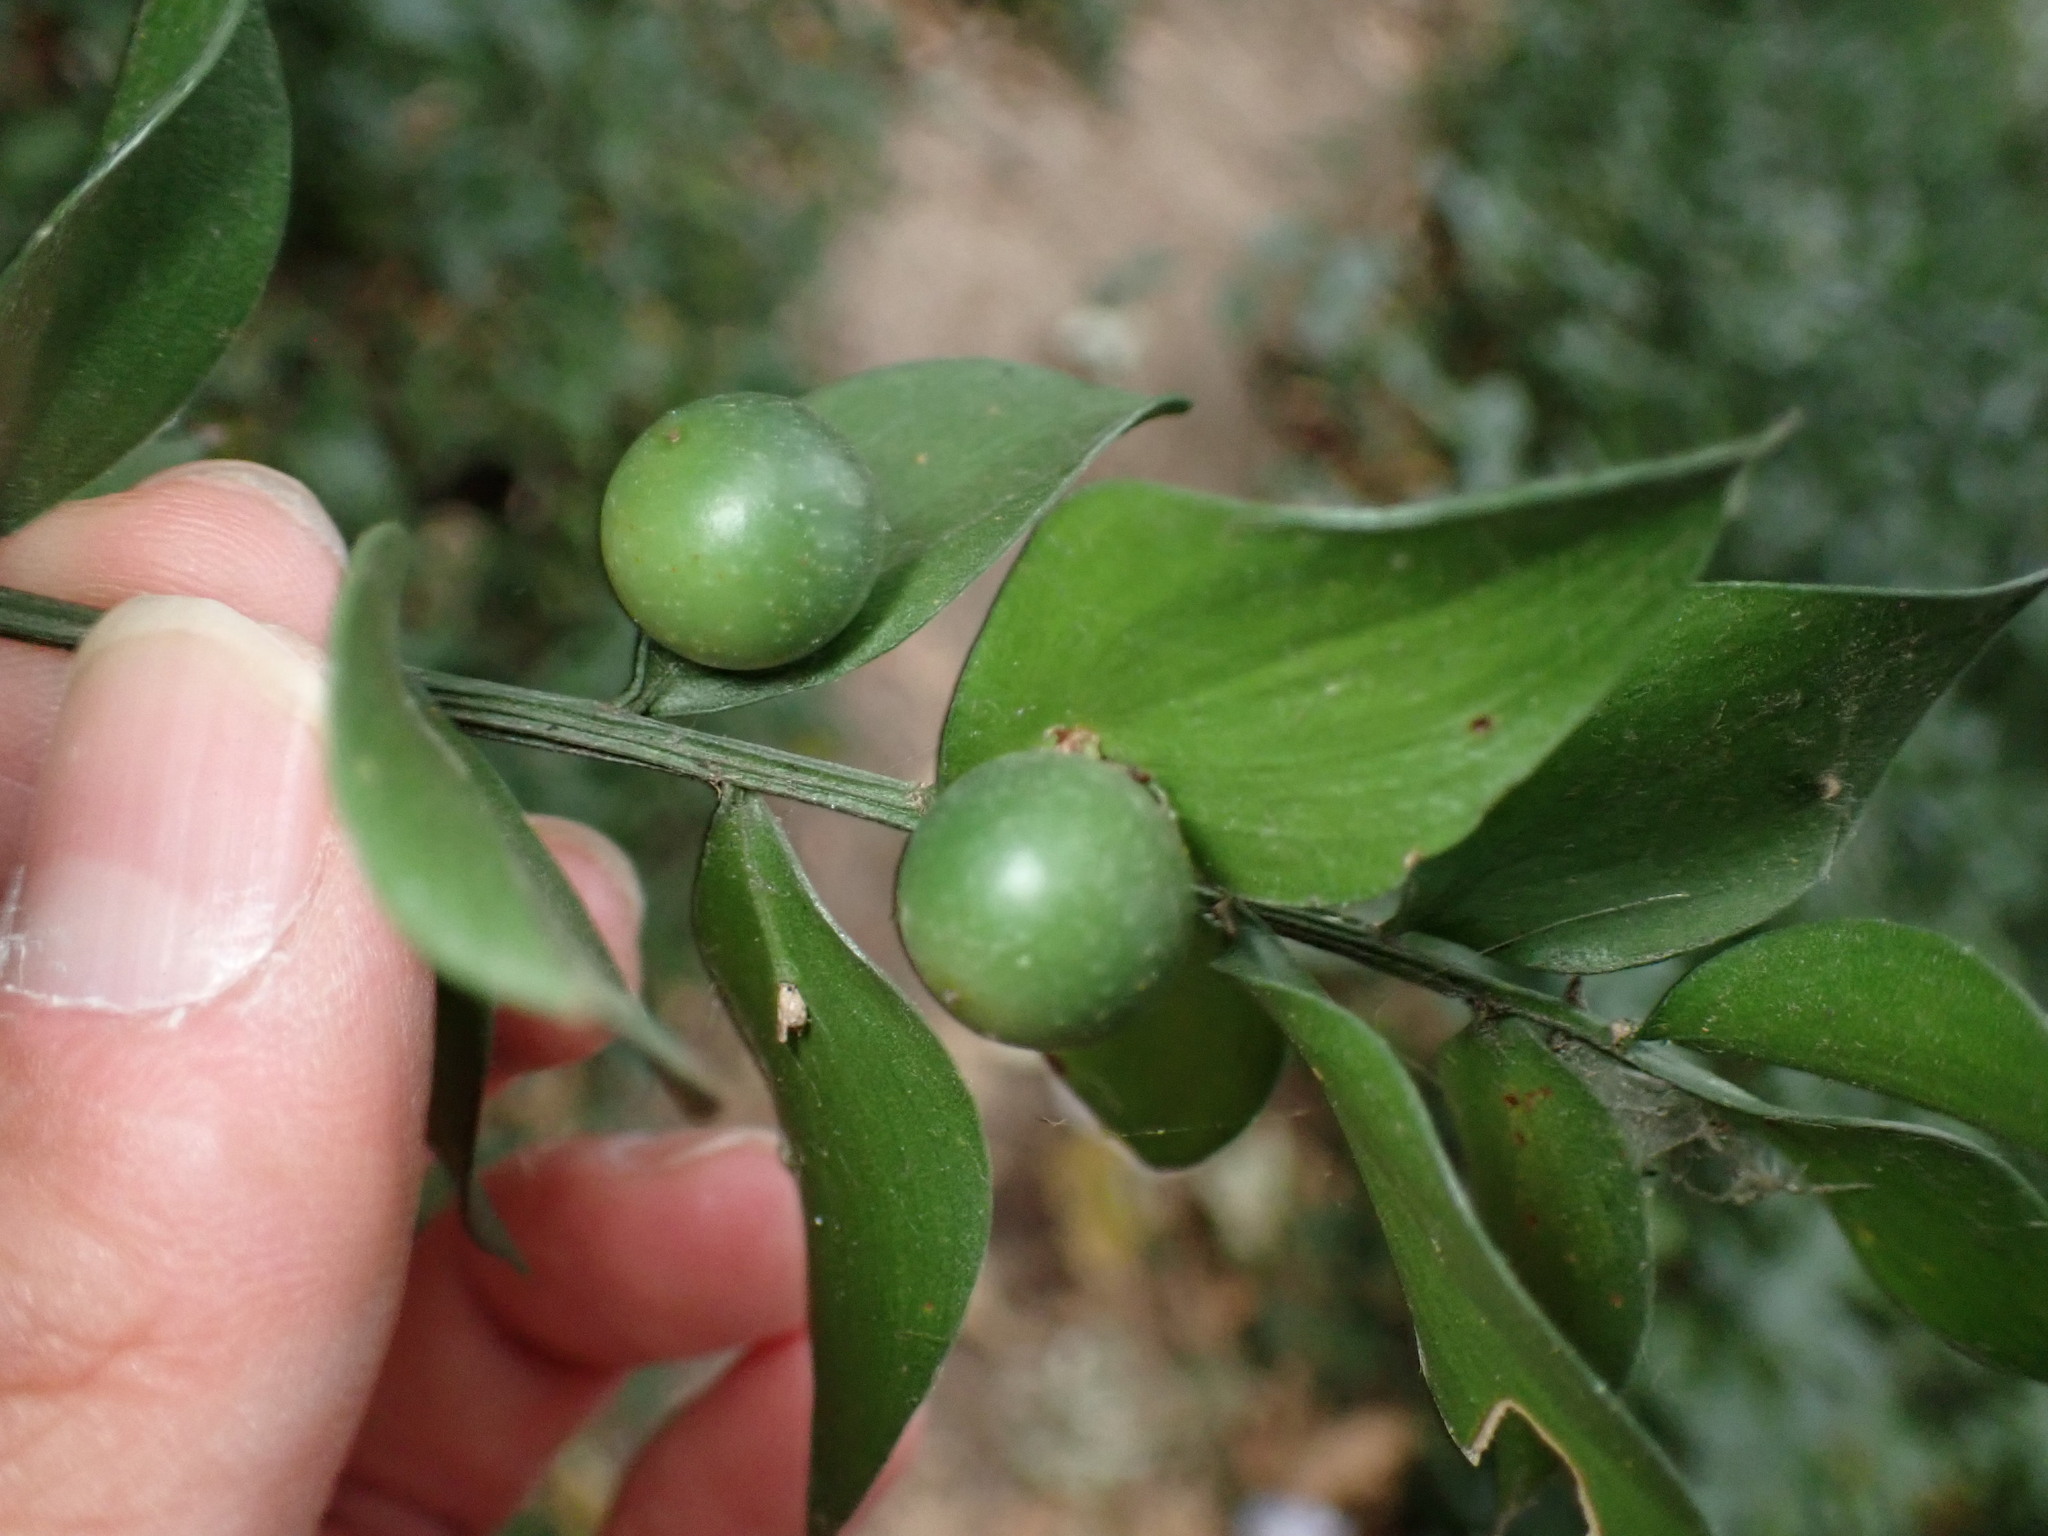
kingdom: Plantae
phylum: Tracheophyta
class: Liliopsida
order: Asparagales
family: Asparagaceae
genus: Ruscus
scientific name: Ruscus aculeatus
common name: Butcher's-broom
